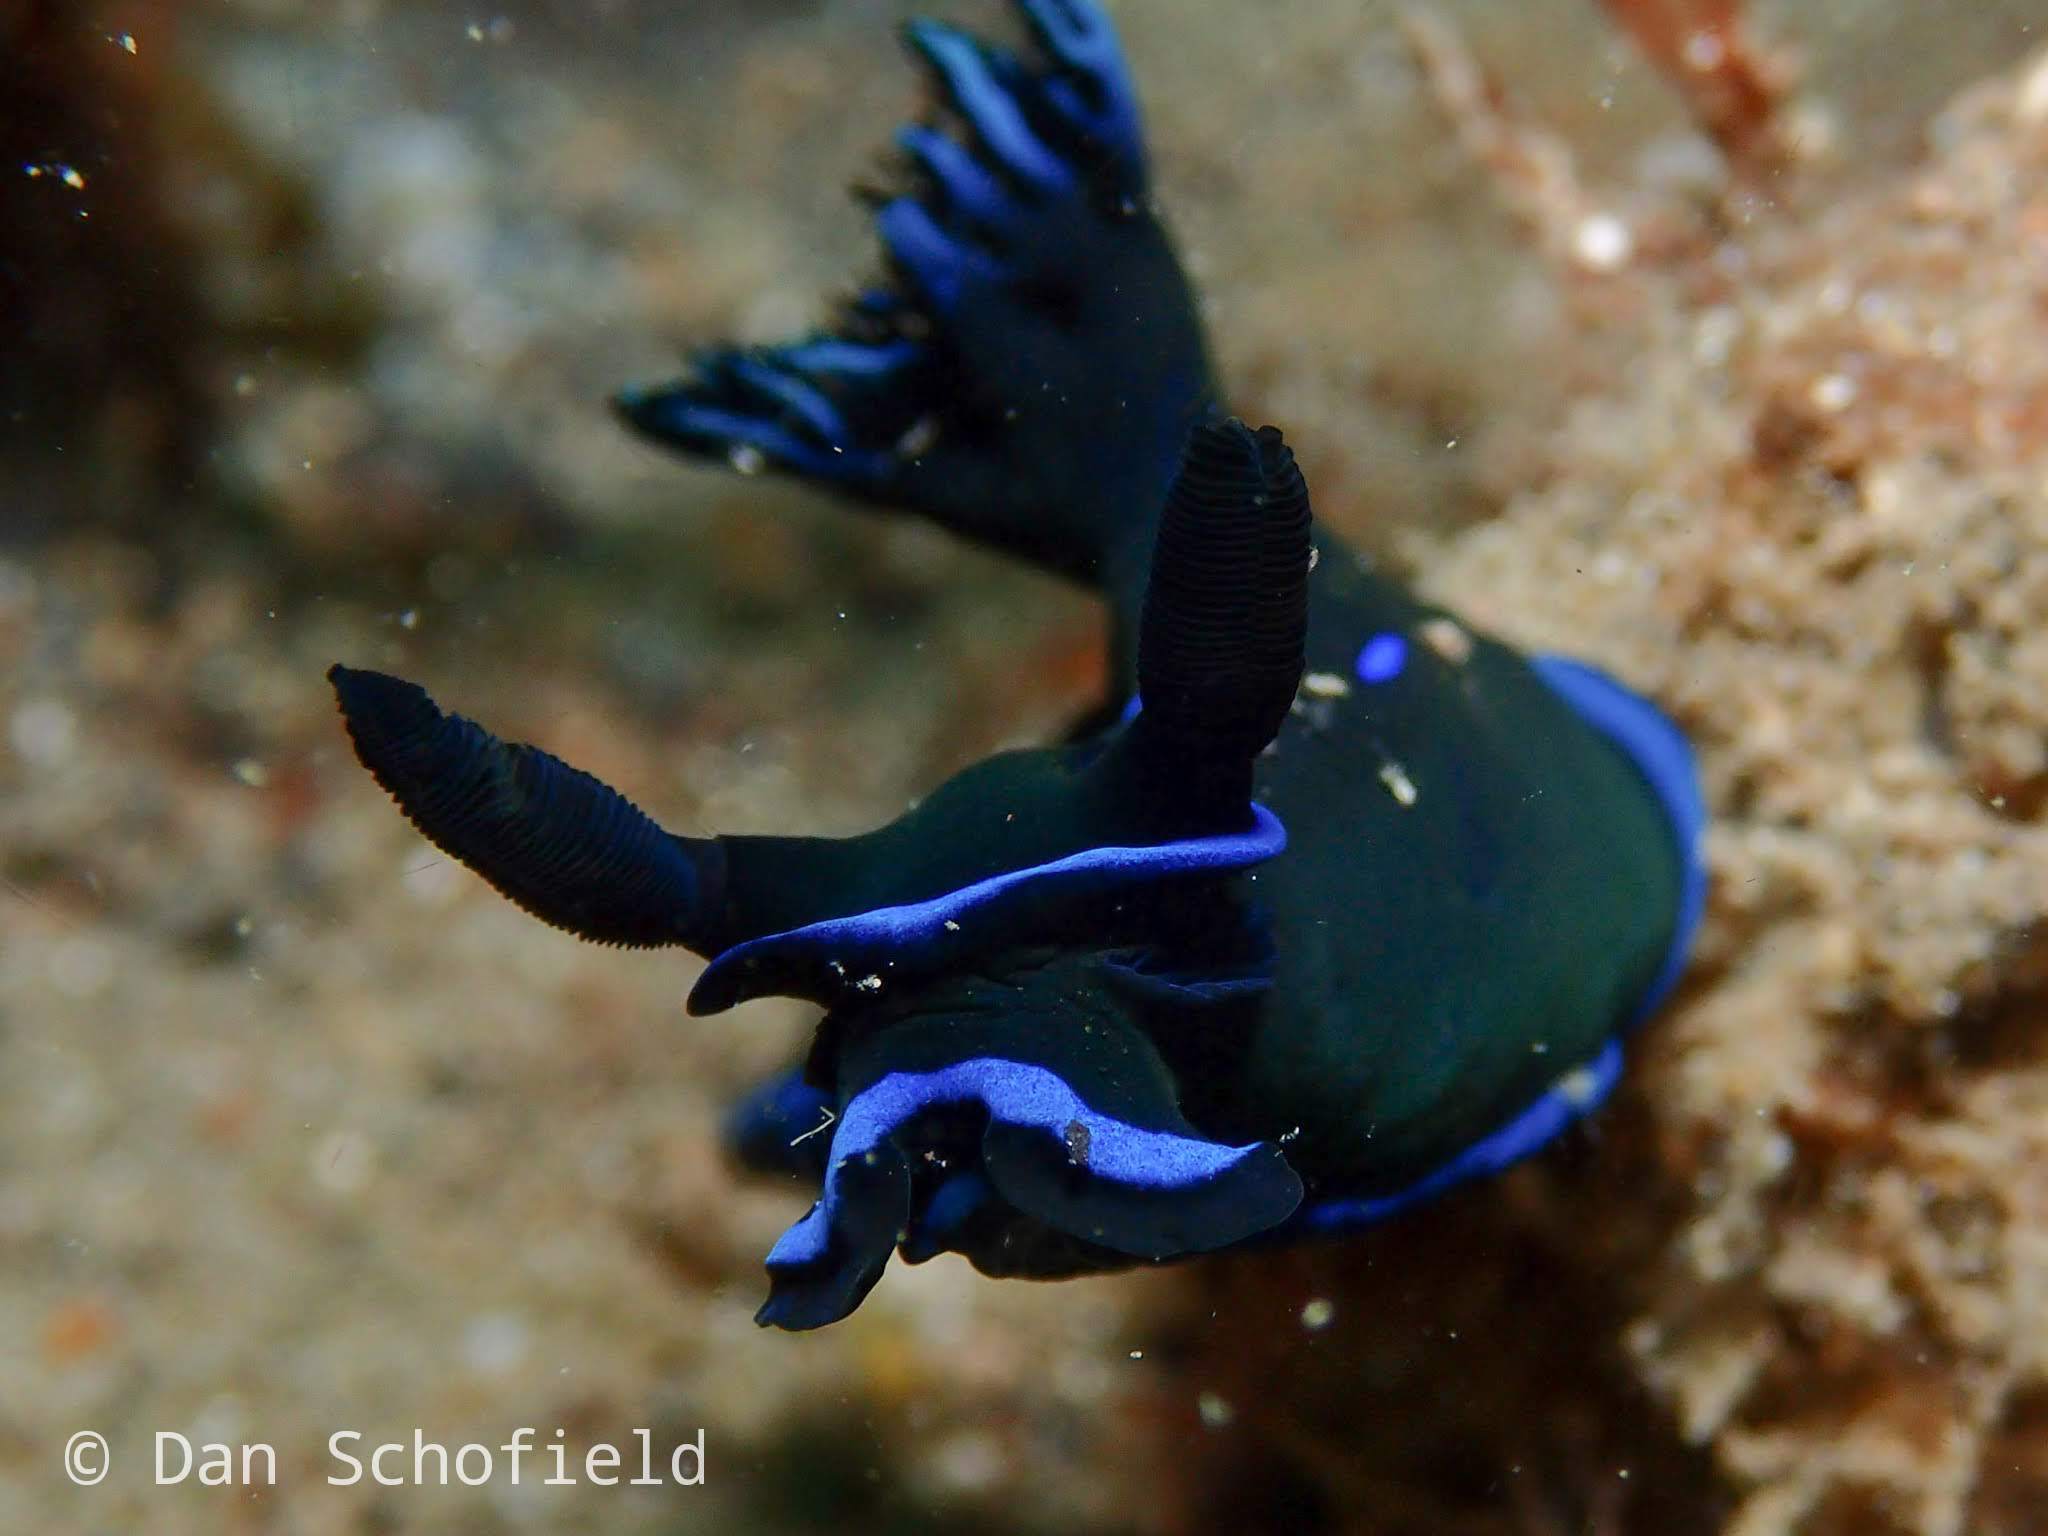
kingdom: Animalia
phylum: Mollusca
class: Gastropoda
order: Nudibranchia
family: Polyceridae
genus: Tambja
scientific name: Tambja morosa
